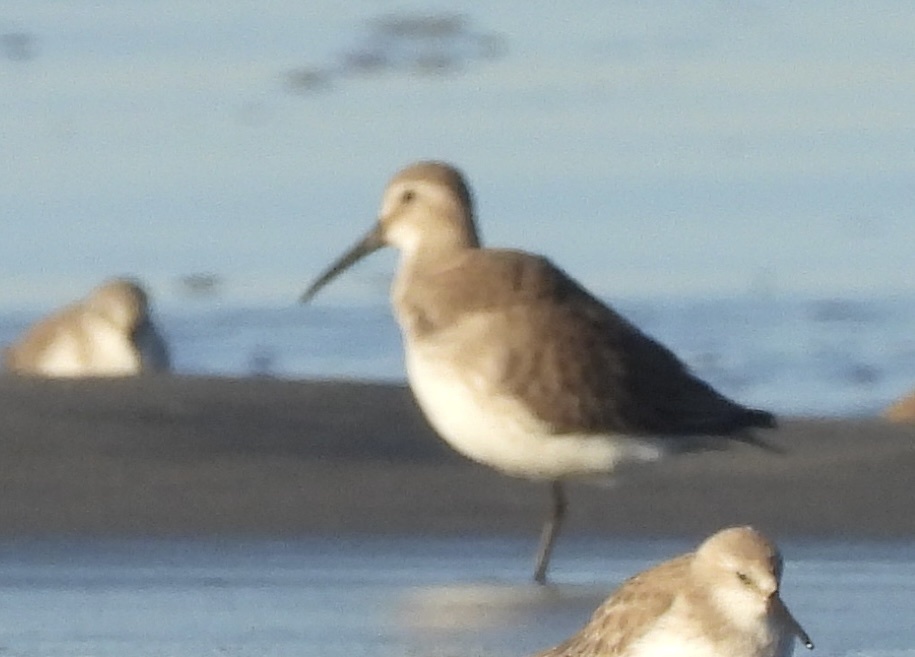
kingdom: Animalia
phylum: Chordata
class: Aves
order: Charadriiformes
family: Scolopacidae
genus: Calidris
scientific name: Calidris alpina
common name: Dunlin
